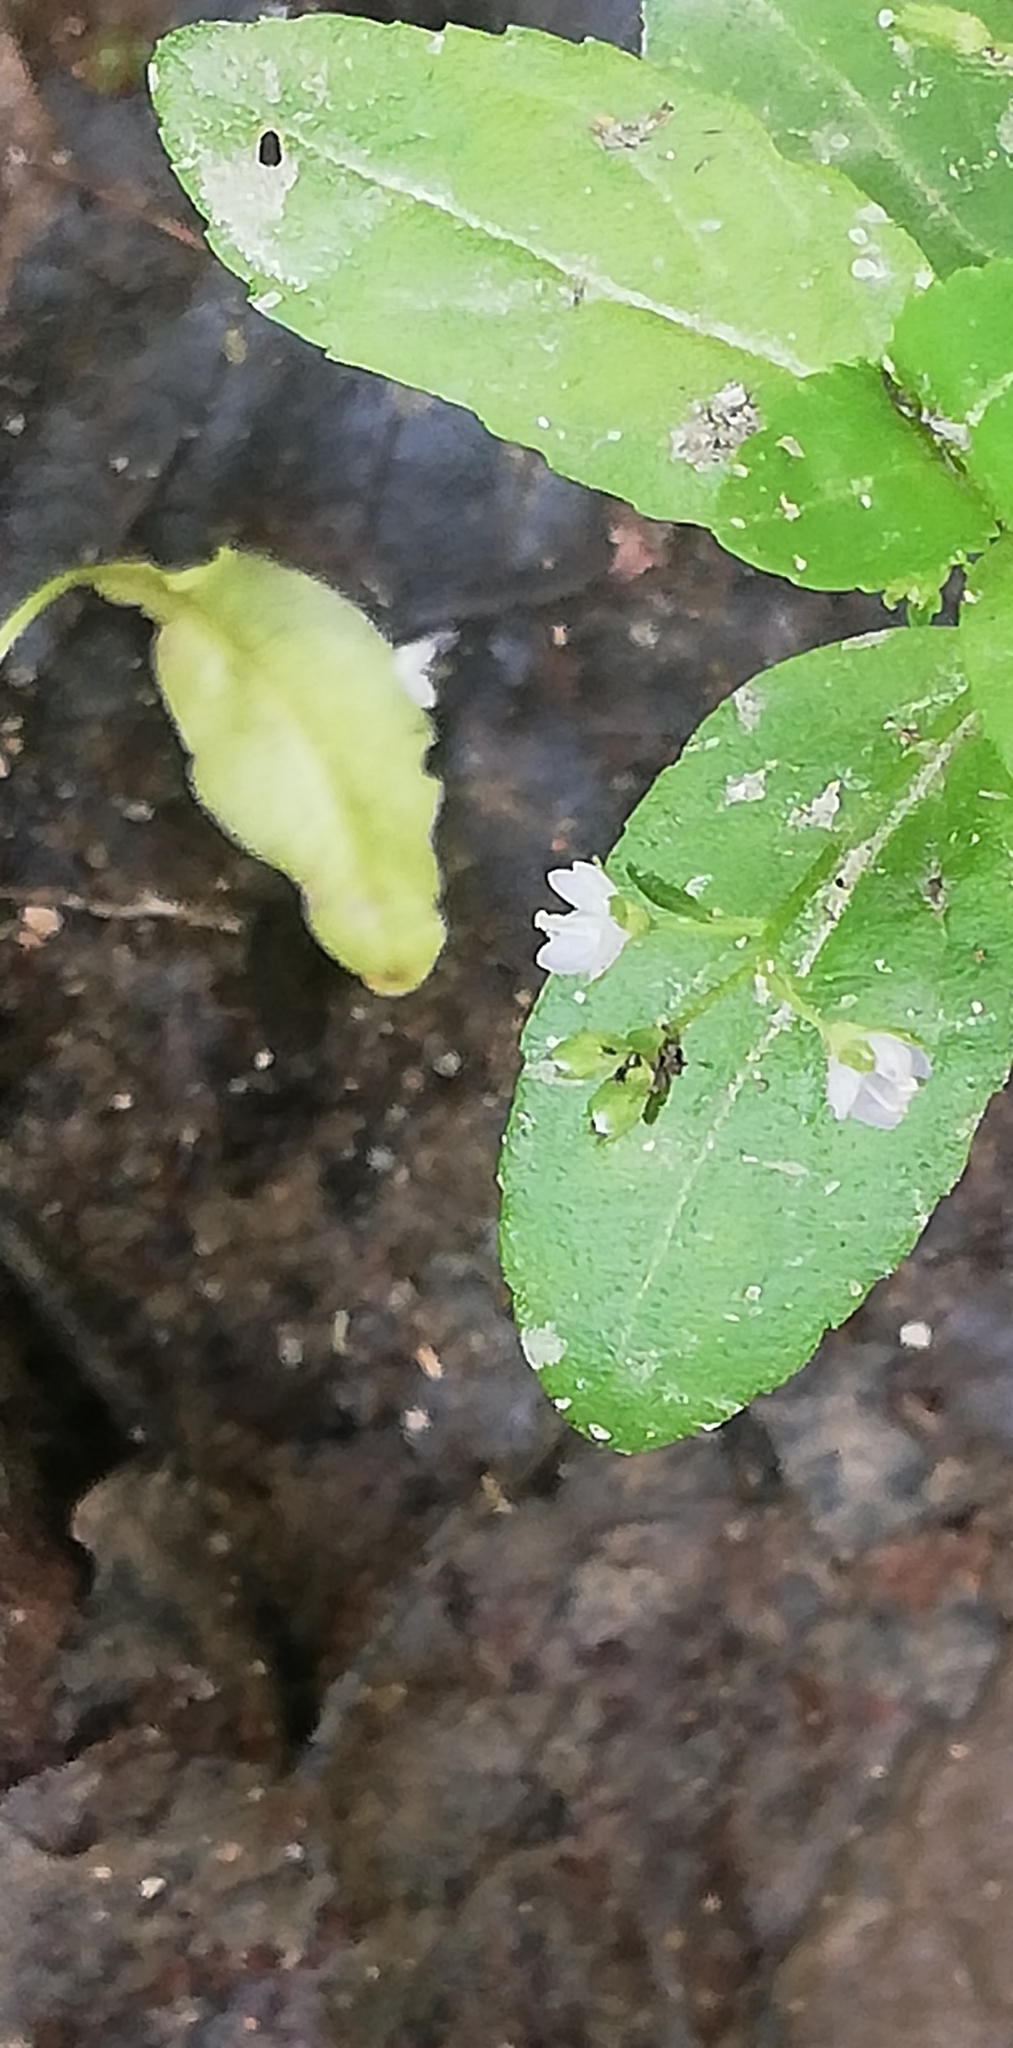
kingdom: Plantae
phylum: Tracheophyta
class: Magnoliopsida
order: Lamiales
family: Plantaginaceae
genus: Veronica
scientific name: Veronica beccabunga
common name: Brooklime
